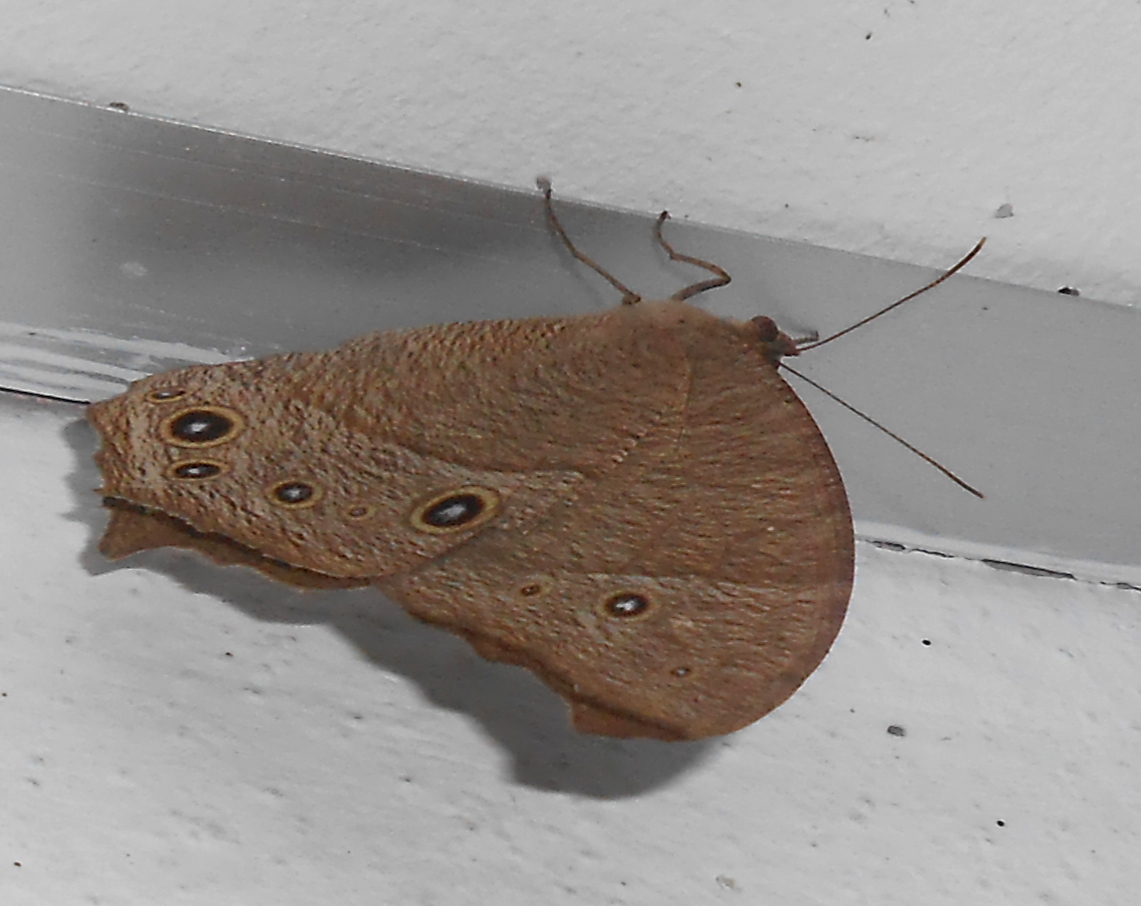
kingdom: Animalia
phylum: Arthropoda
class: Insecta
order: Lepidoptera
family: Nymphalidae
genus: Melanitis
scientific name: Melanitis leda
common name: Twilight brown
